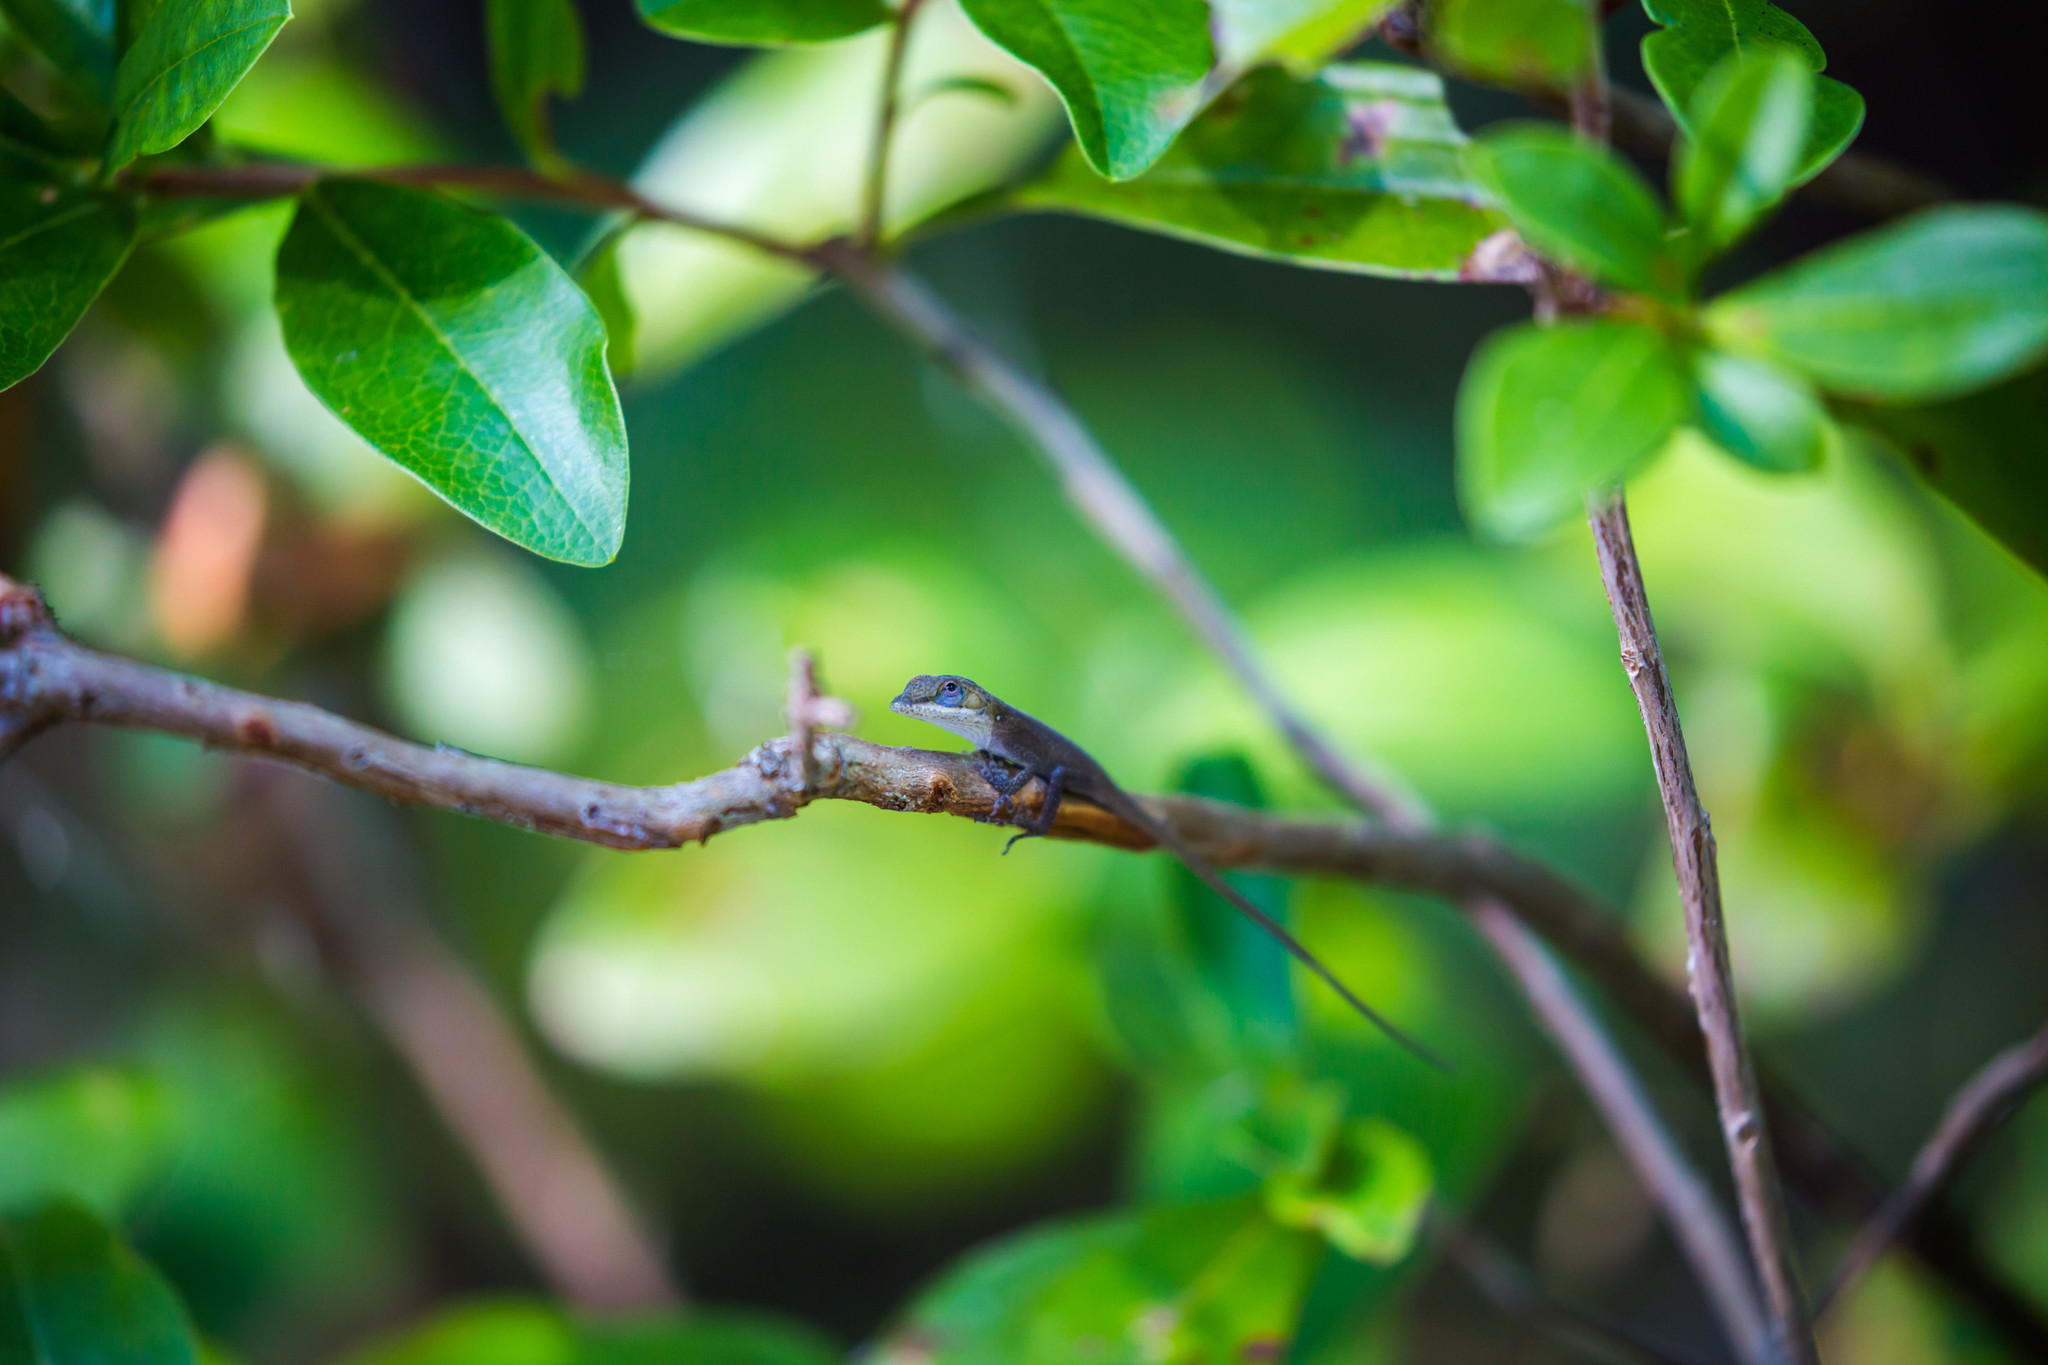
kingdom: Animalia
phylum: Chordata
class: Squamata
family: Dactyloidae
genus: Anolis
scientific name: Anolis carolinensis
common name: Green anole
